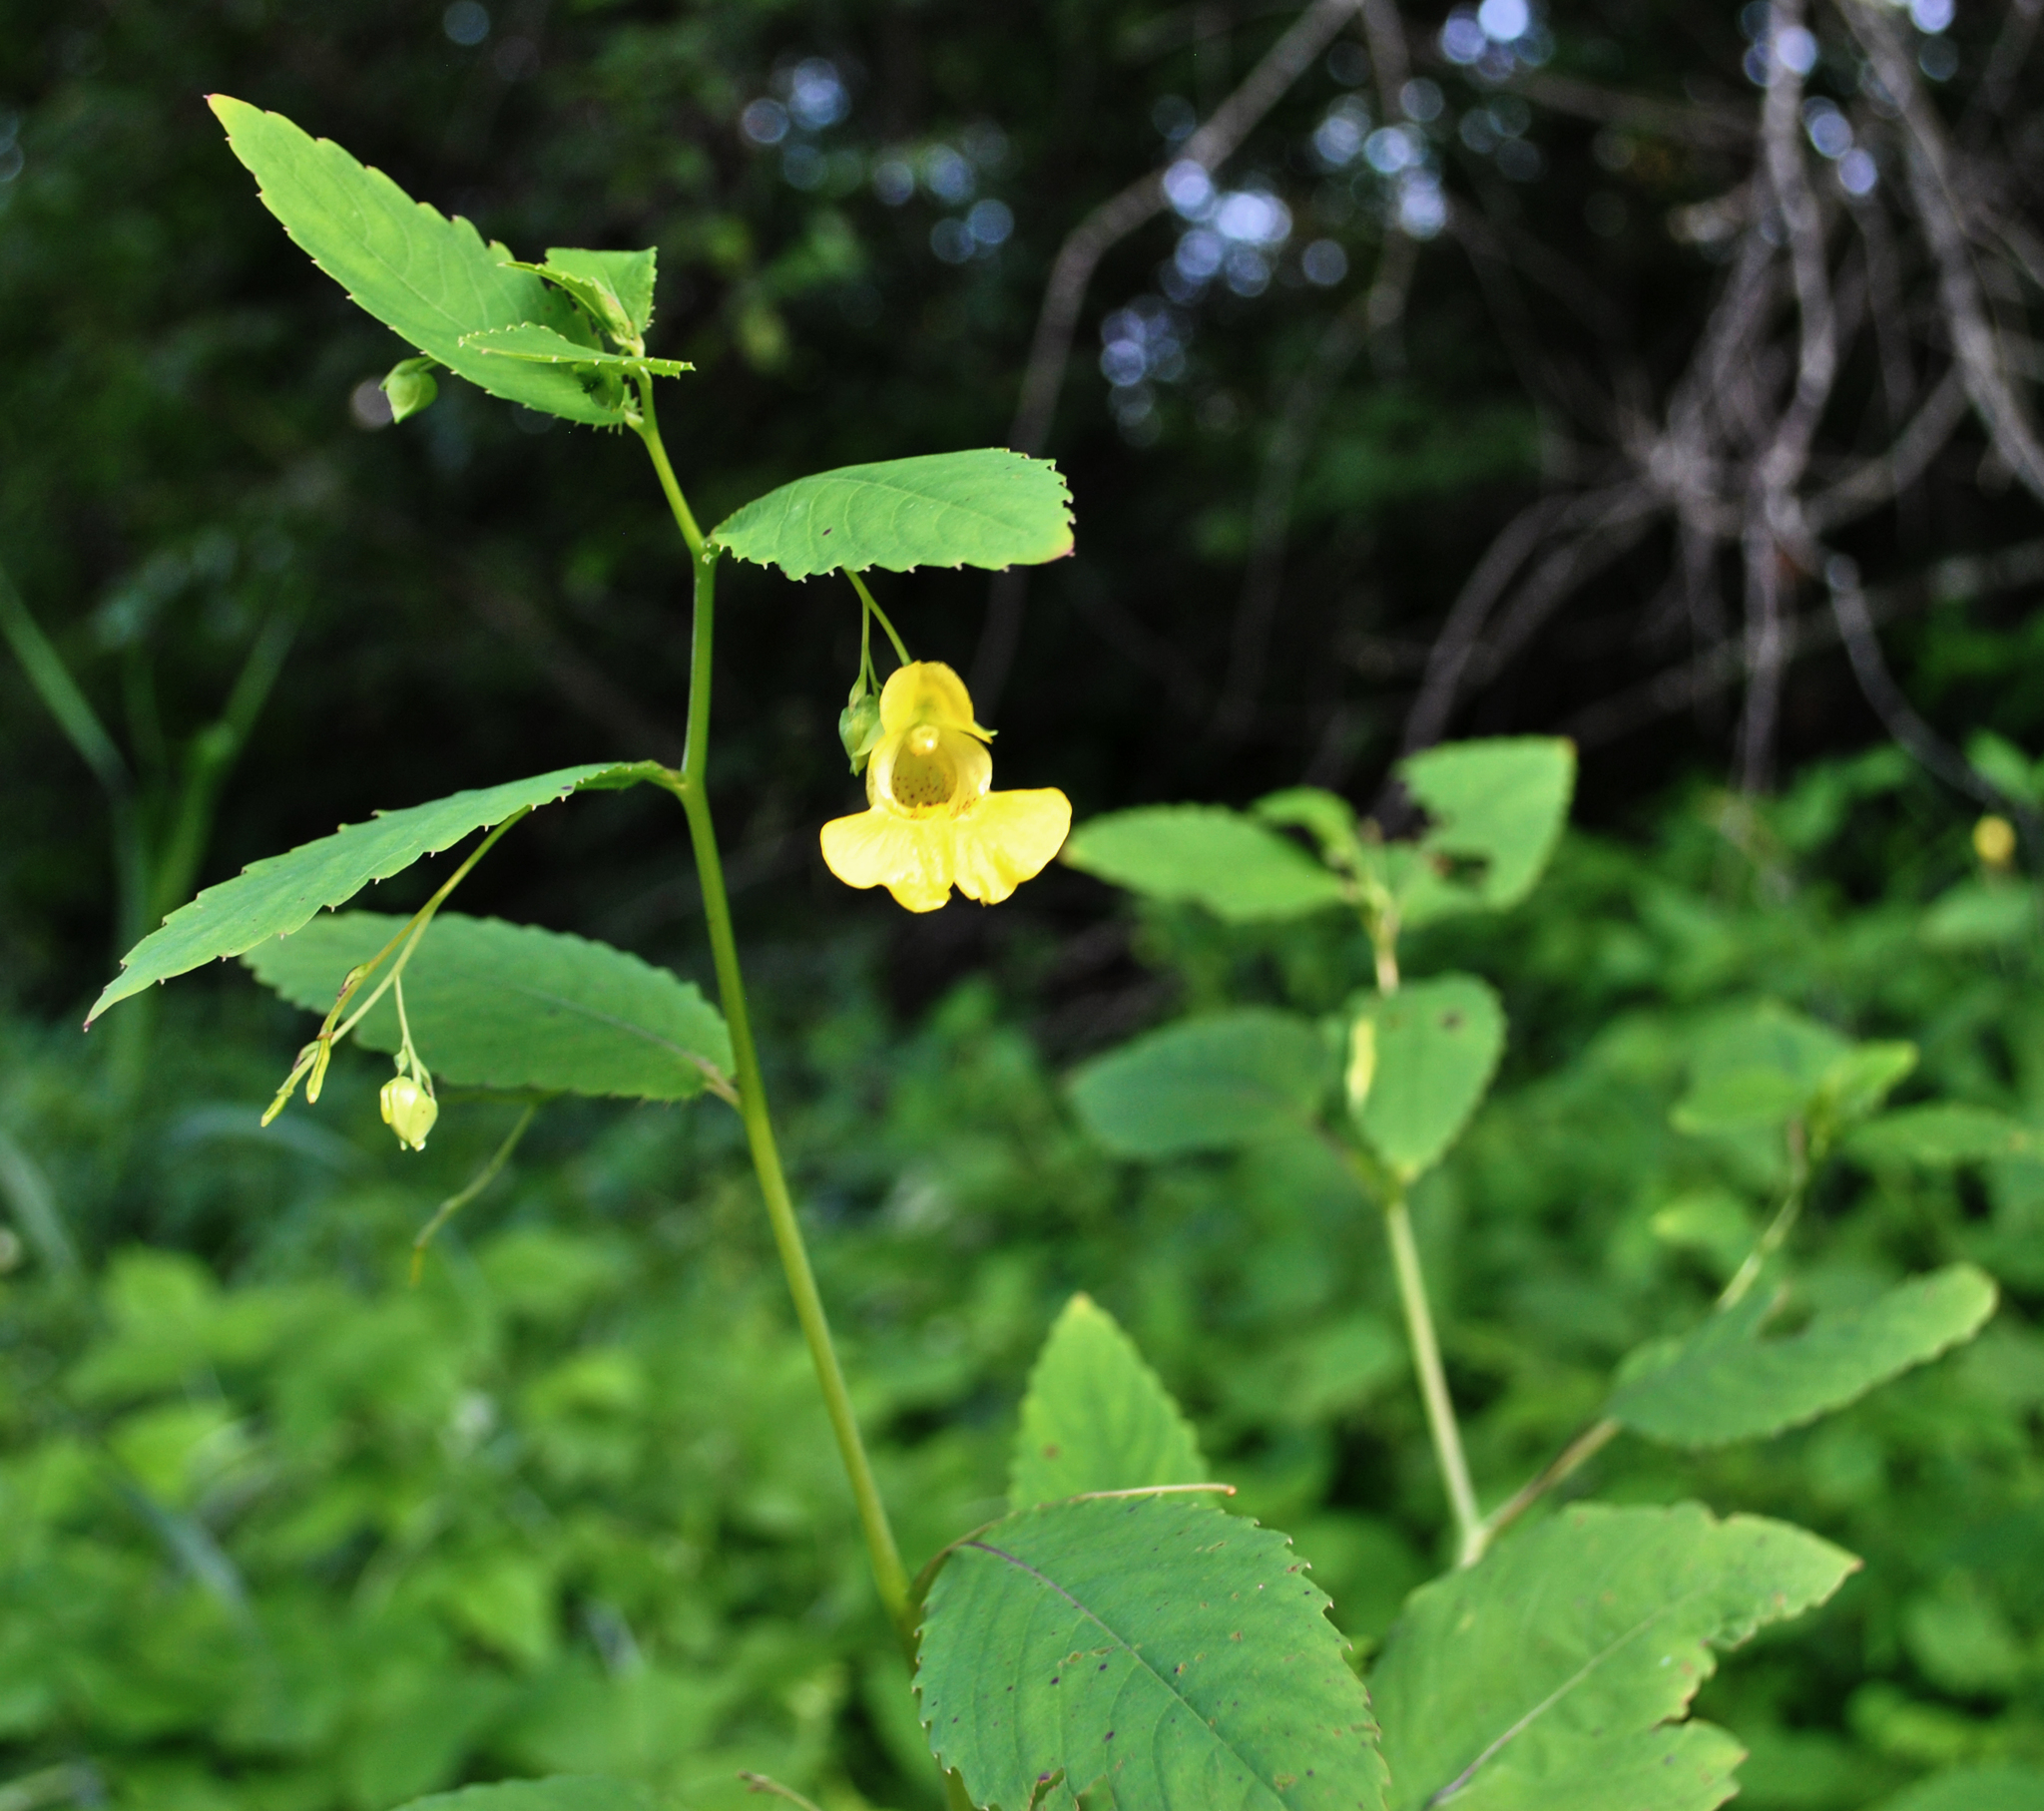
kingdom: Plantae
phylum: Tracheophyta
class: Magnoliopsida
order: Ericales
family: Balsaminaceae
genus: Impatiens
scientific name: Impatiens pallida
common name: Pale snapweed
